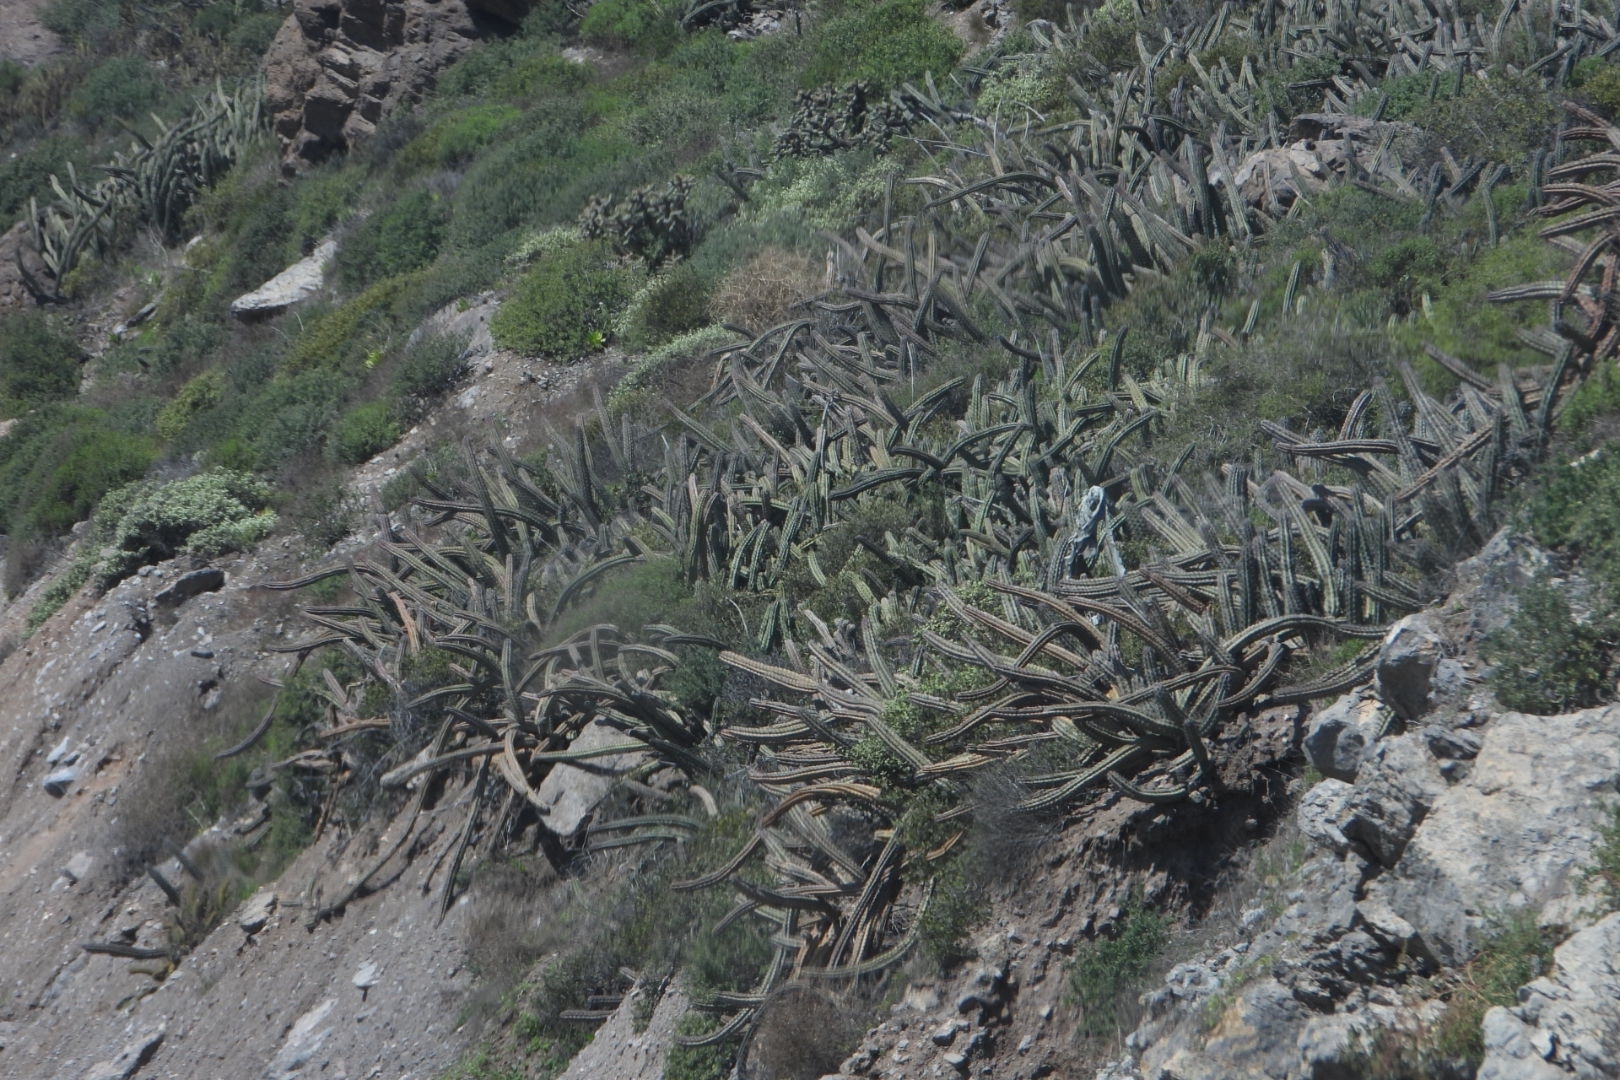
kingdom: Plantae
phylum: Tracheophyta
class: Magnoliopsida
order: Caryophyllales
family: Cactaceae
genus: Stenocereus
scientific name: Stenocereus gummosus
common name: Dagger cactus
